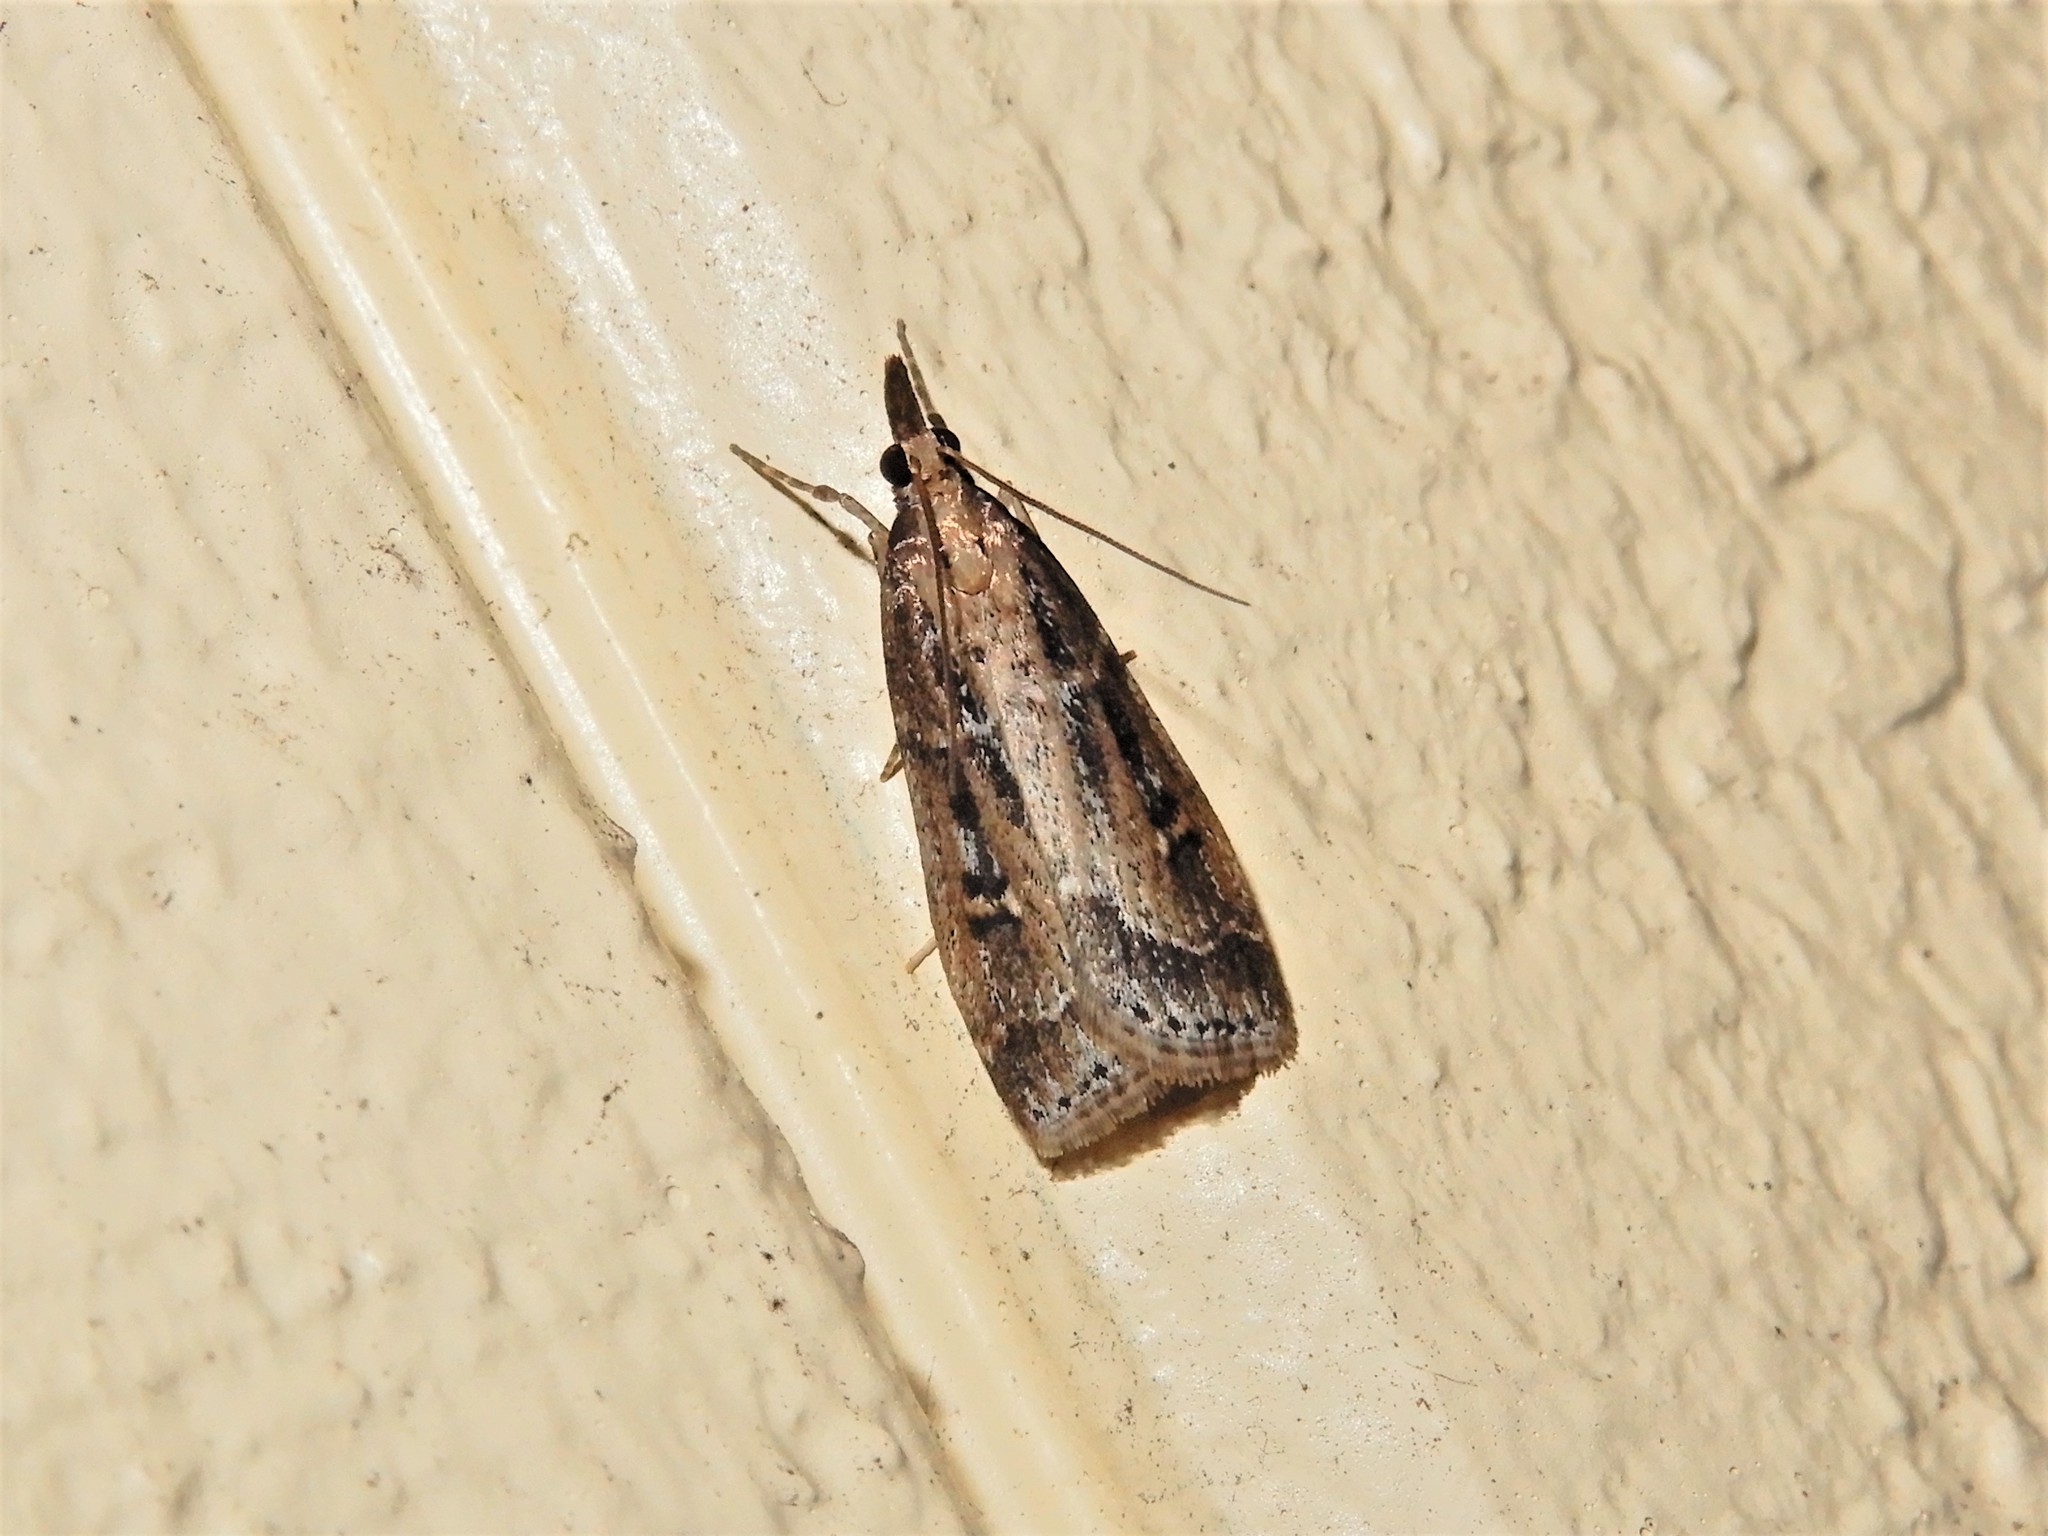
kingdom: Animalia
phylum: Arthropoda
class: Insecta
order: Lepidoptera
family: Crambidae
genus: Eudonia
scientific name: Eudonia octophora
